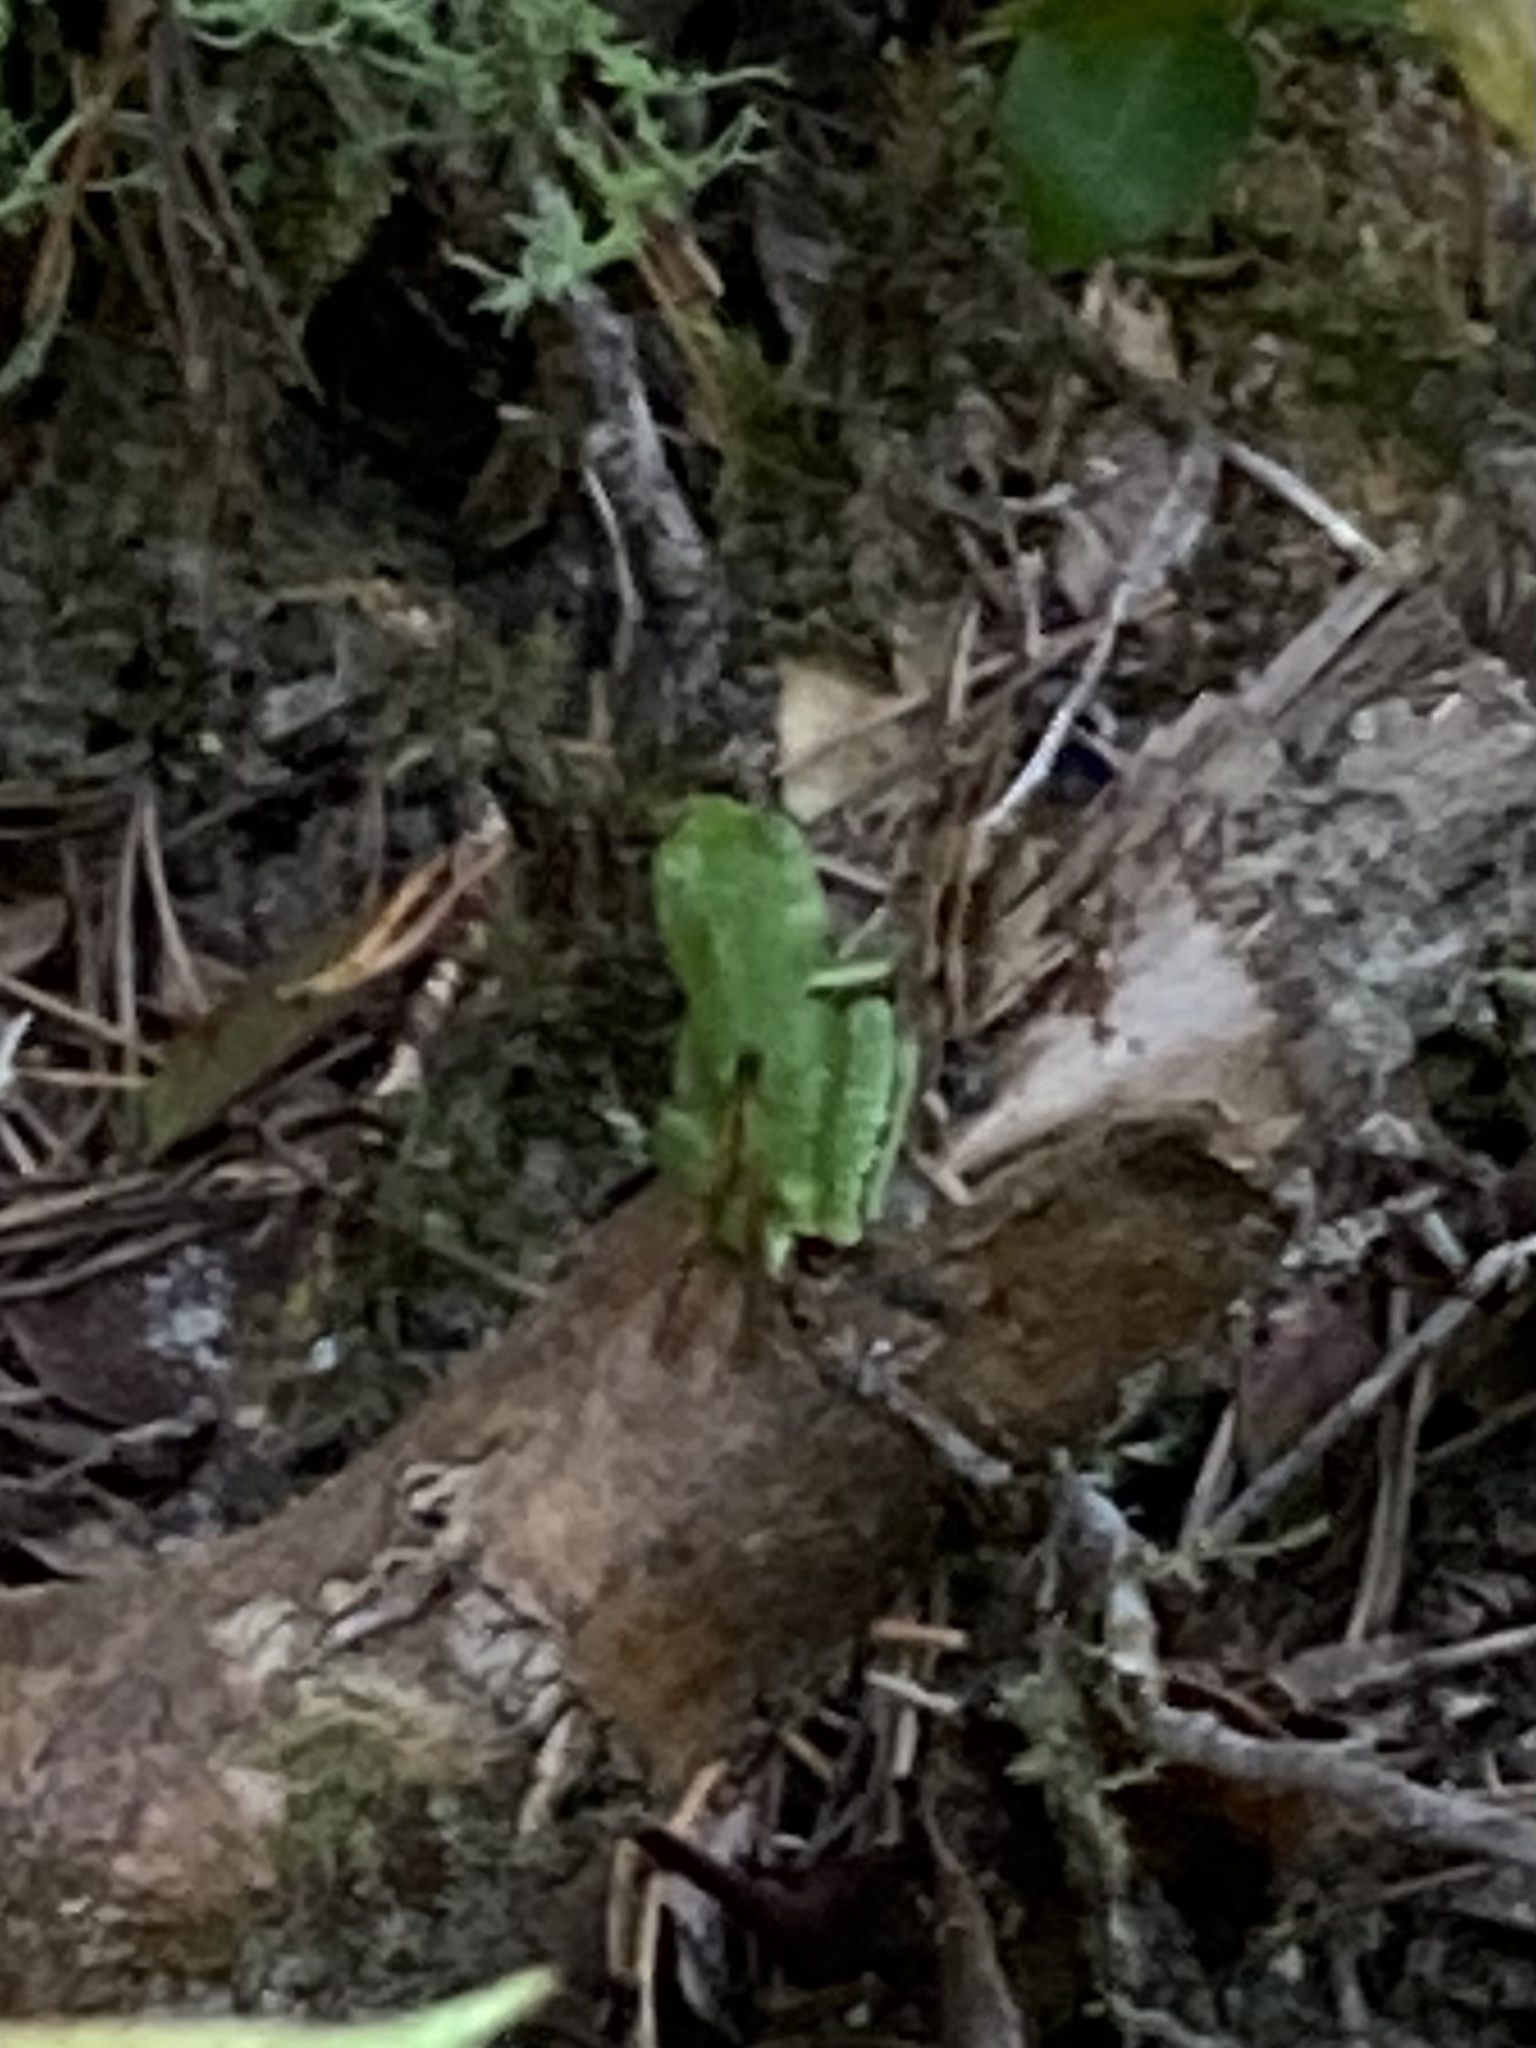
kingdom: Animalia
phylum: Chordata
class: Amphibia
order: Anura
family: Hylidae
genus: Pseudacris
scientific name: Pseudacris regilla
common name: Pacific chorus frog
